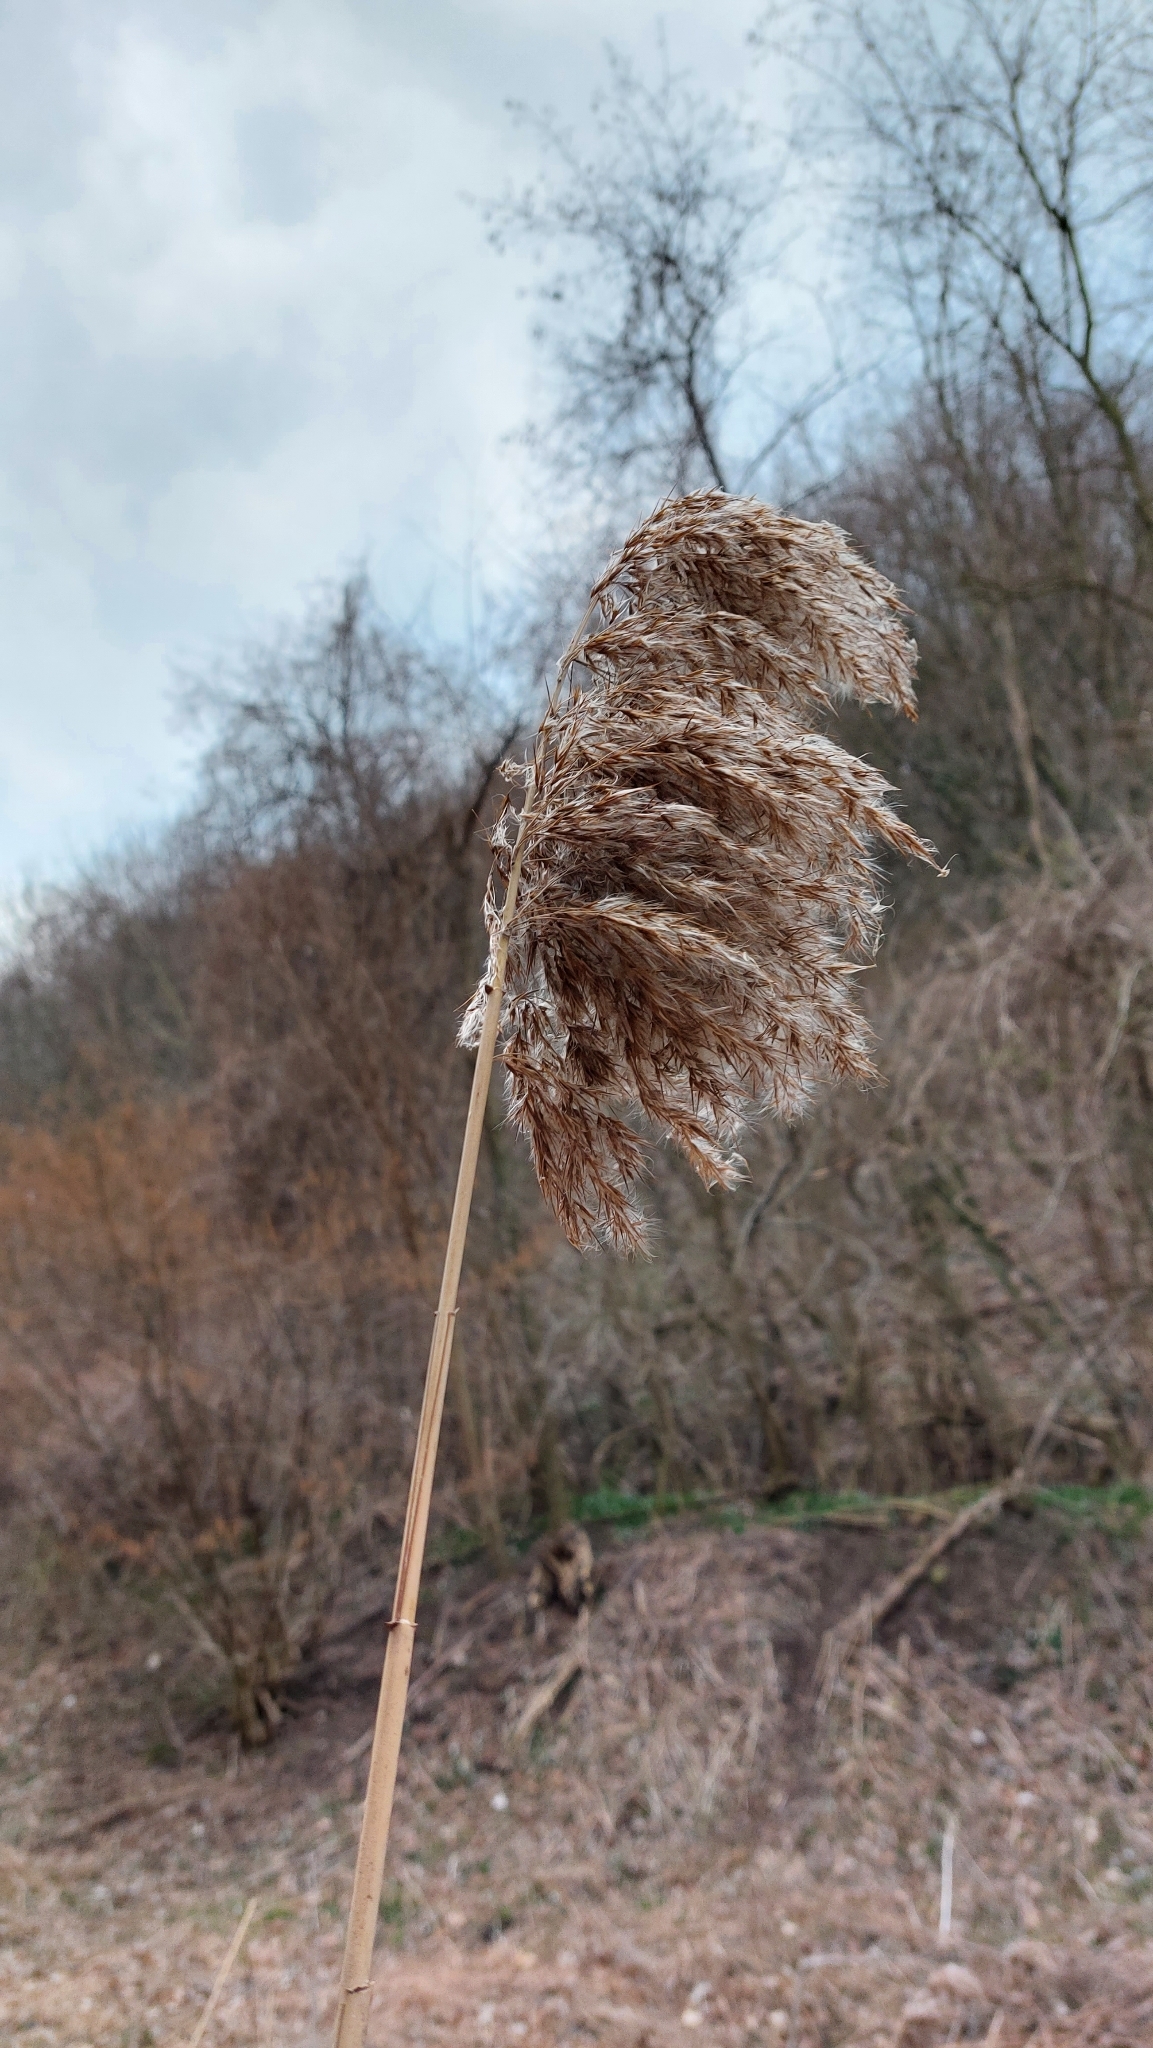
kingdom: Plantae
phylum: Tracheophyta
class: Liliopsida
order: Poales
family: Poaceae
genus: Phragmites
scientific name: Phragmites australis
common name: Common reed
